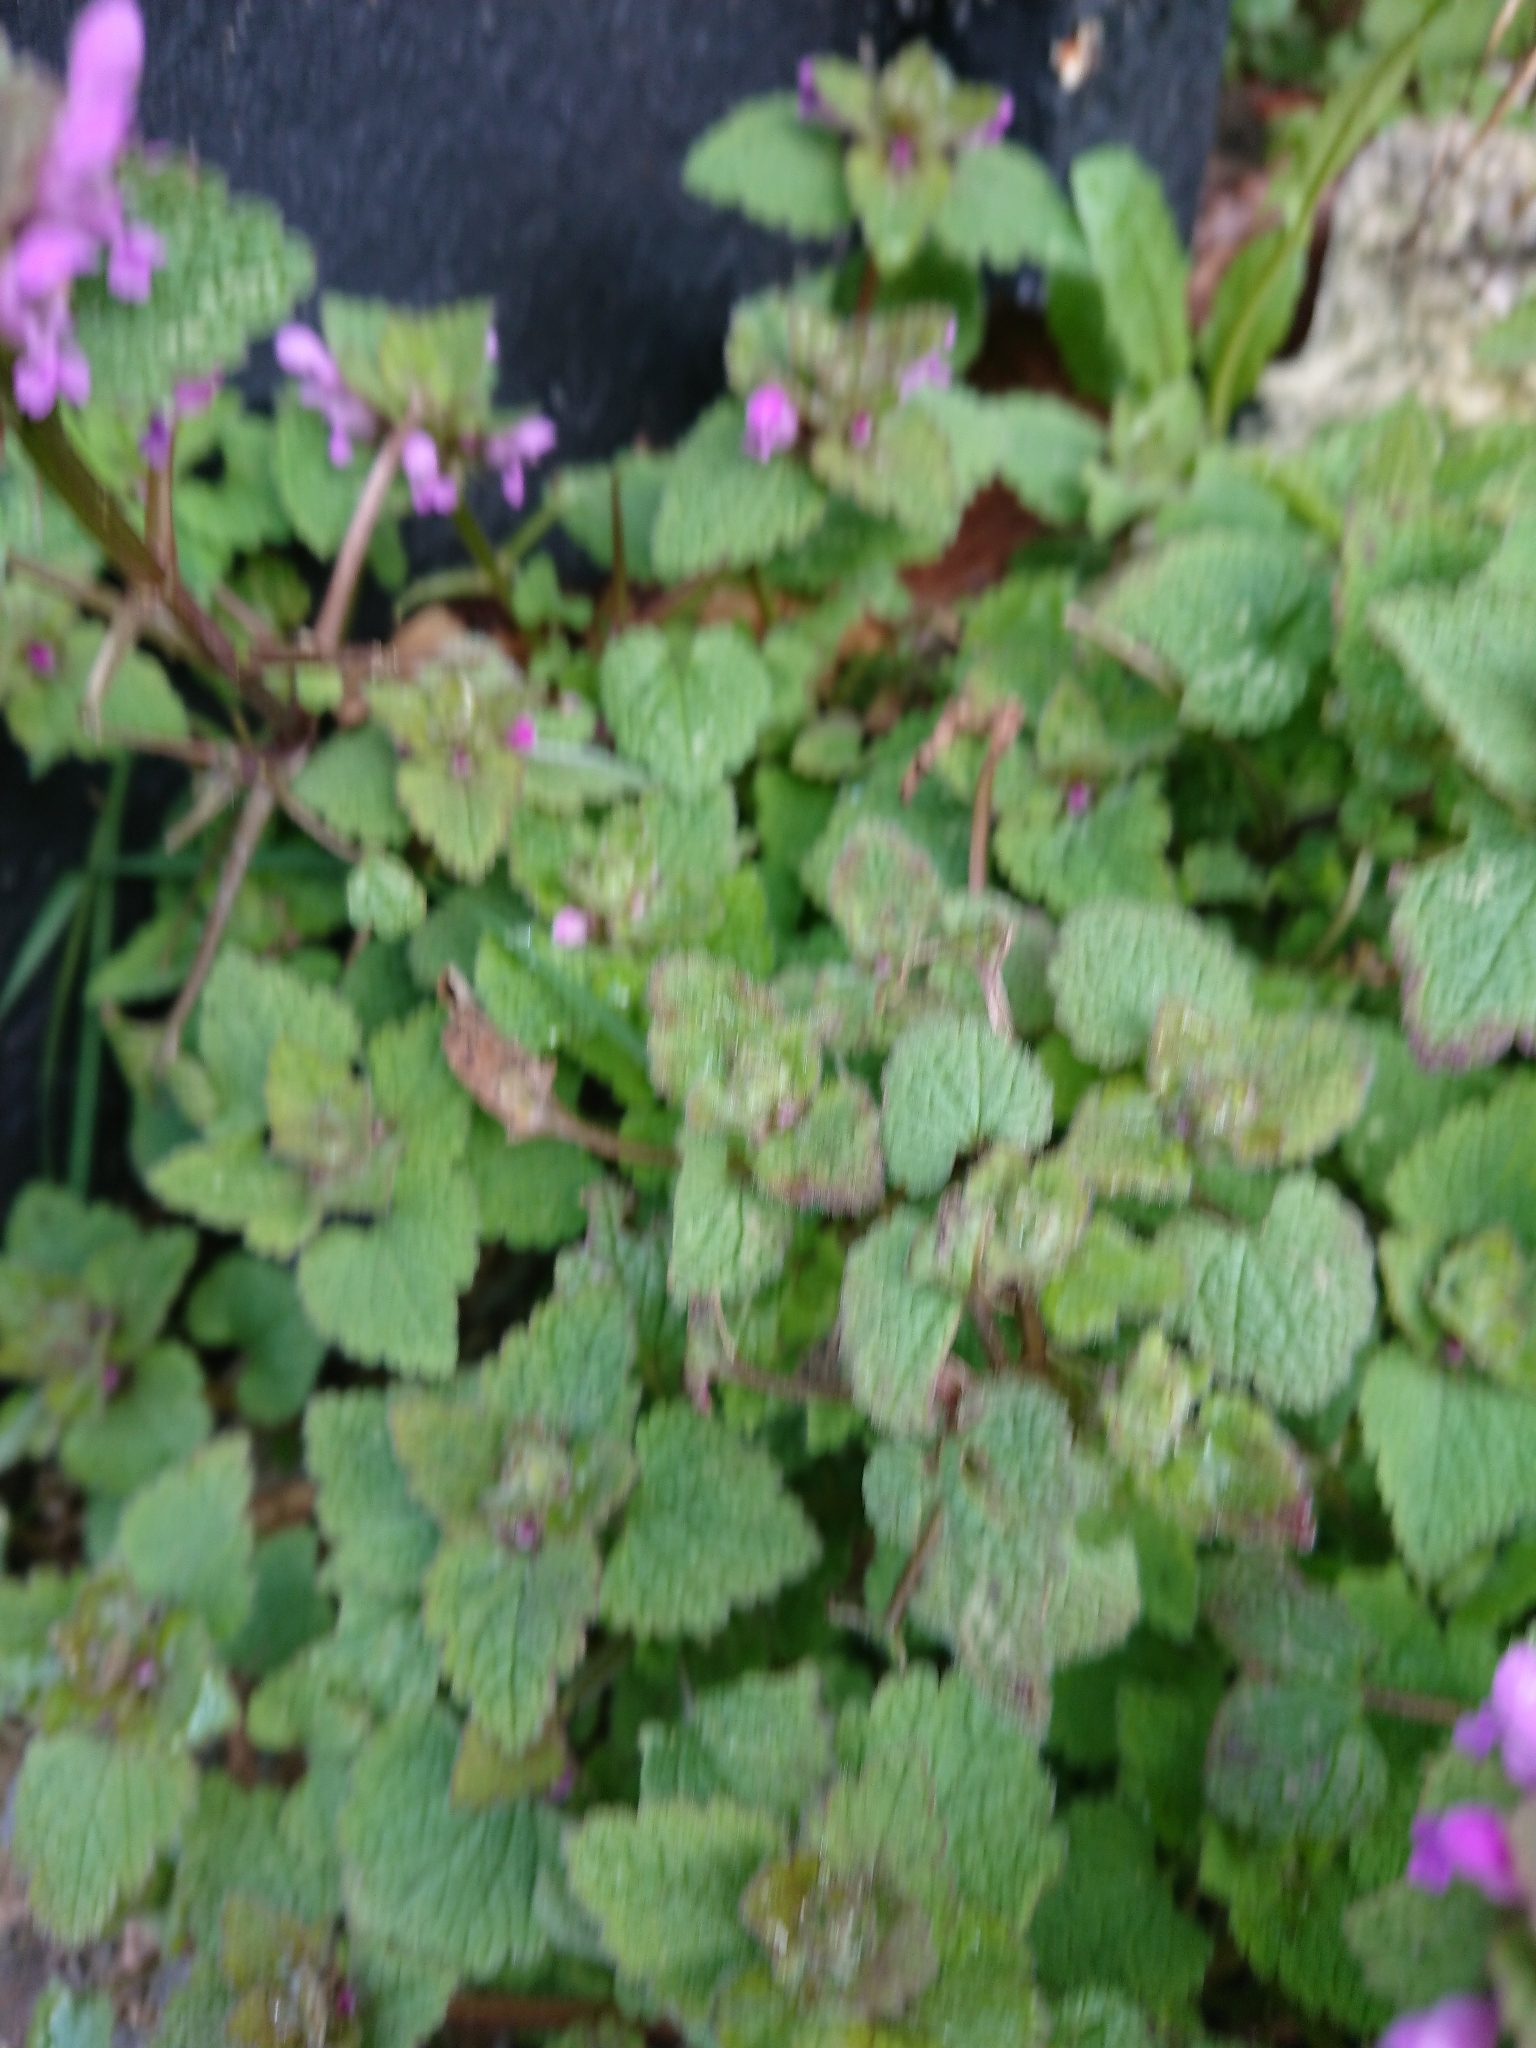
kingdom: Plantae
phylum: Tracheophyta
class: Magnoliopsida
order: Lamiales
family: Lamiaceae
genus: Lamium
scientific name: Lamium purpureum
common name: Red dead-nettle
